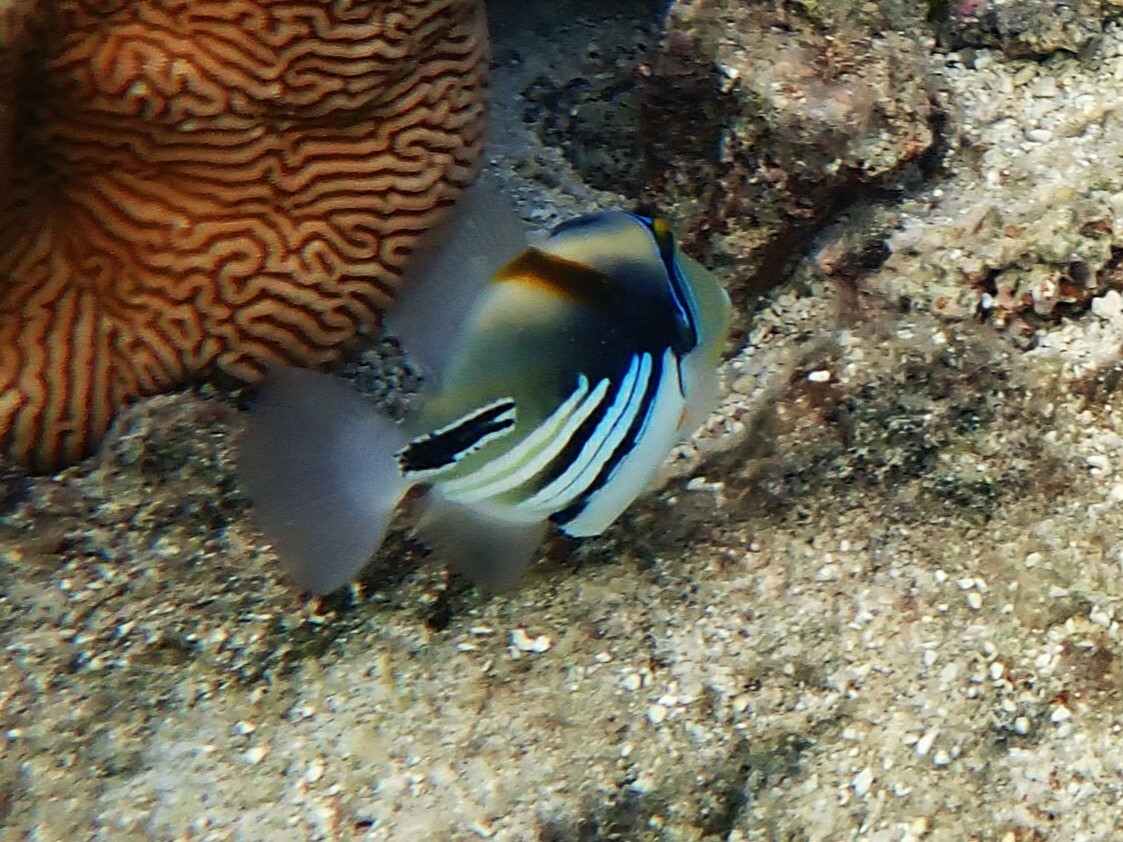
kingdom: Animalia
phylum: Chordata
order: Tetraodontiformes
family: Balistidae
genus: Rhinecanthus
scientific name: Rhinecanthus aculeatus
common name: White-banded triggerfish
